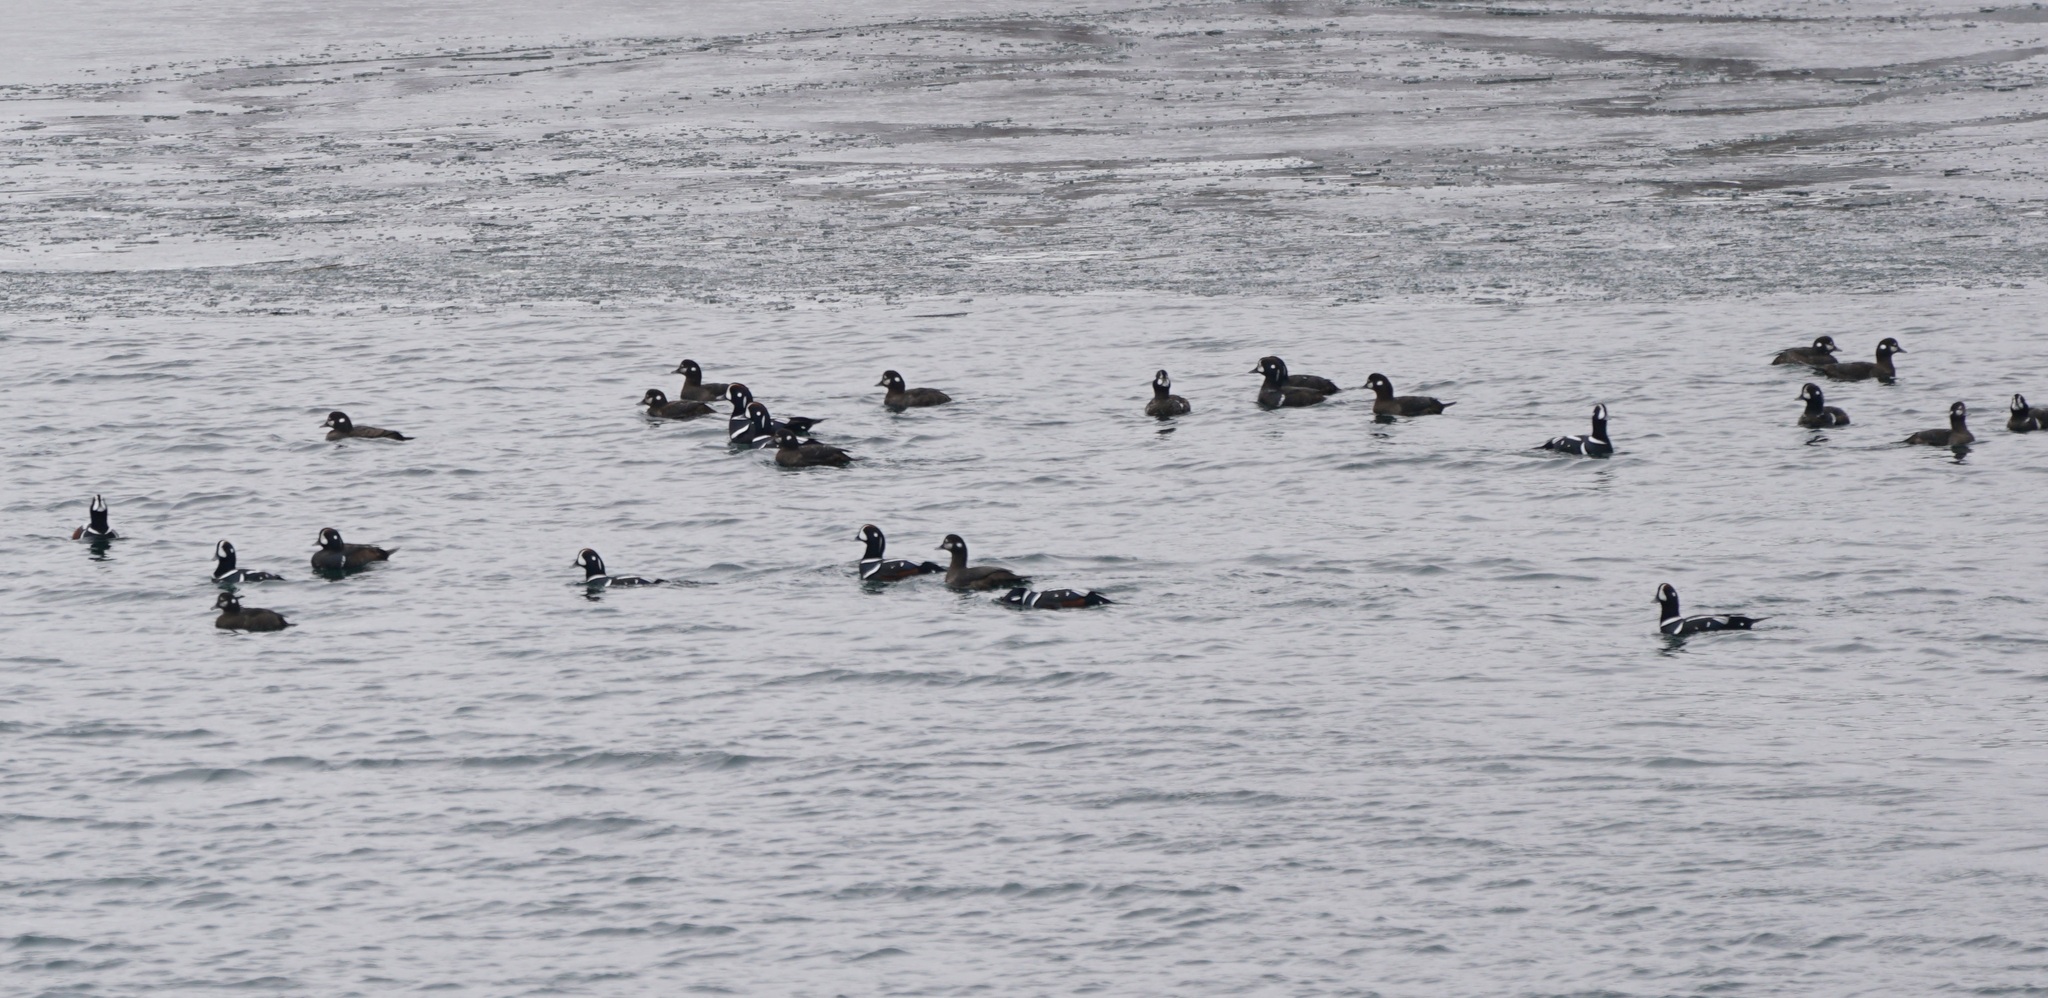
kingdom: Animalia
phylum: Chordata
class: Aves
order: Anseriformes
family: Anatidae
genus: Histrionicus
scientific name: Histrionicus histrionicus
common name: Harlequin duck
